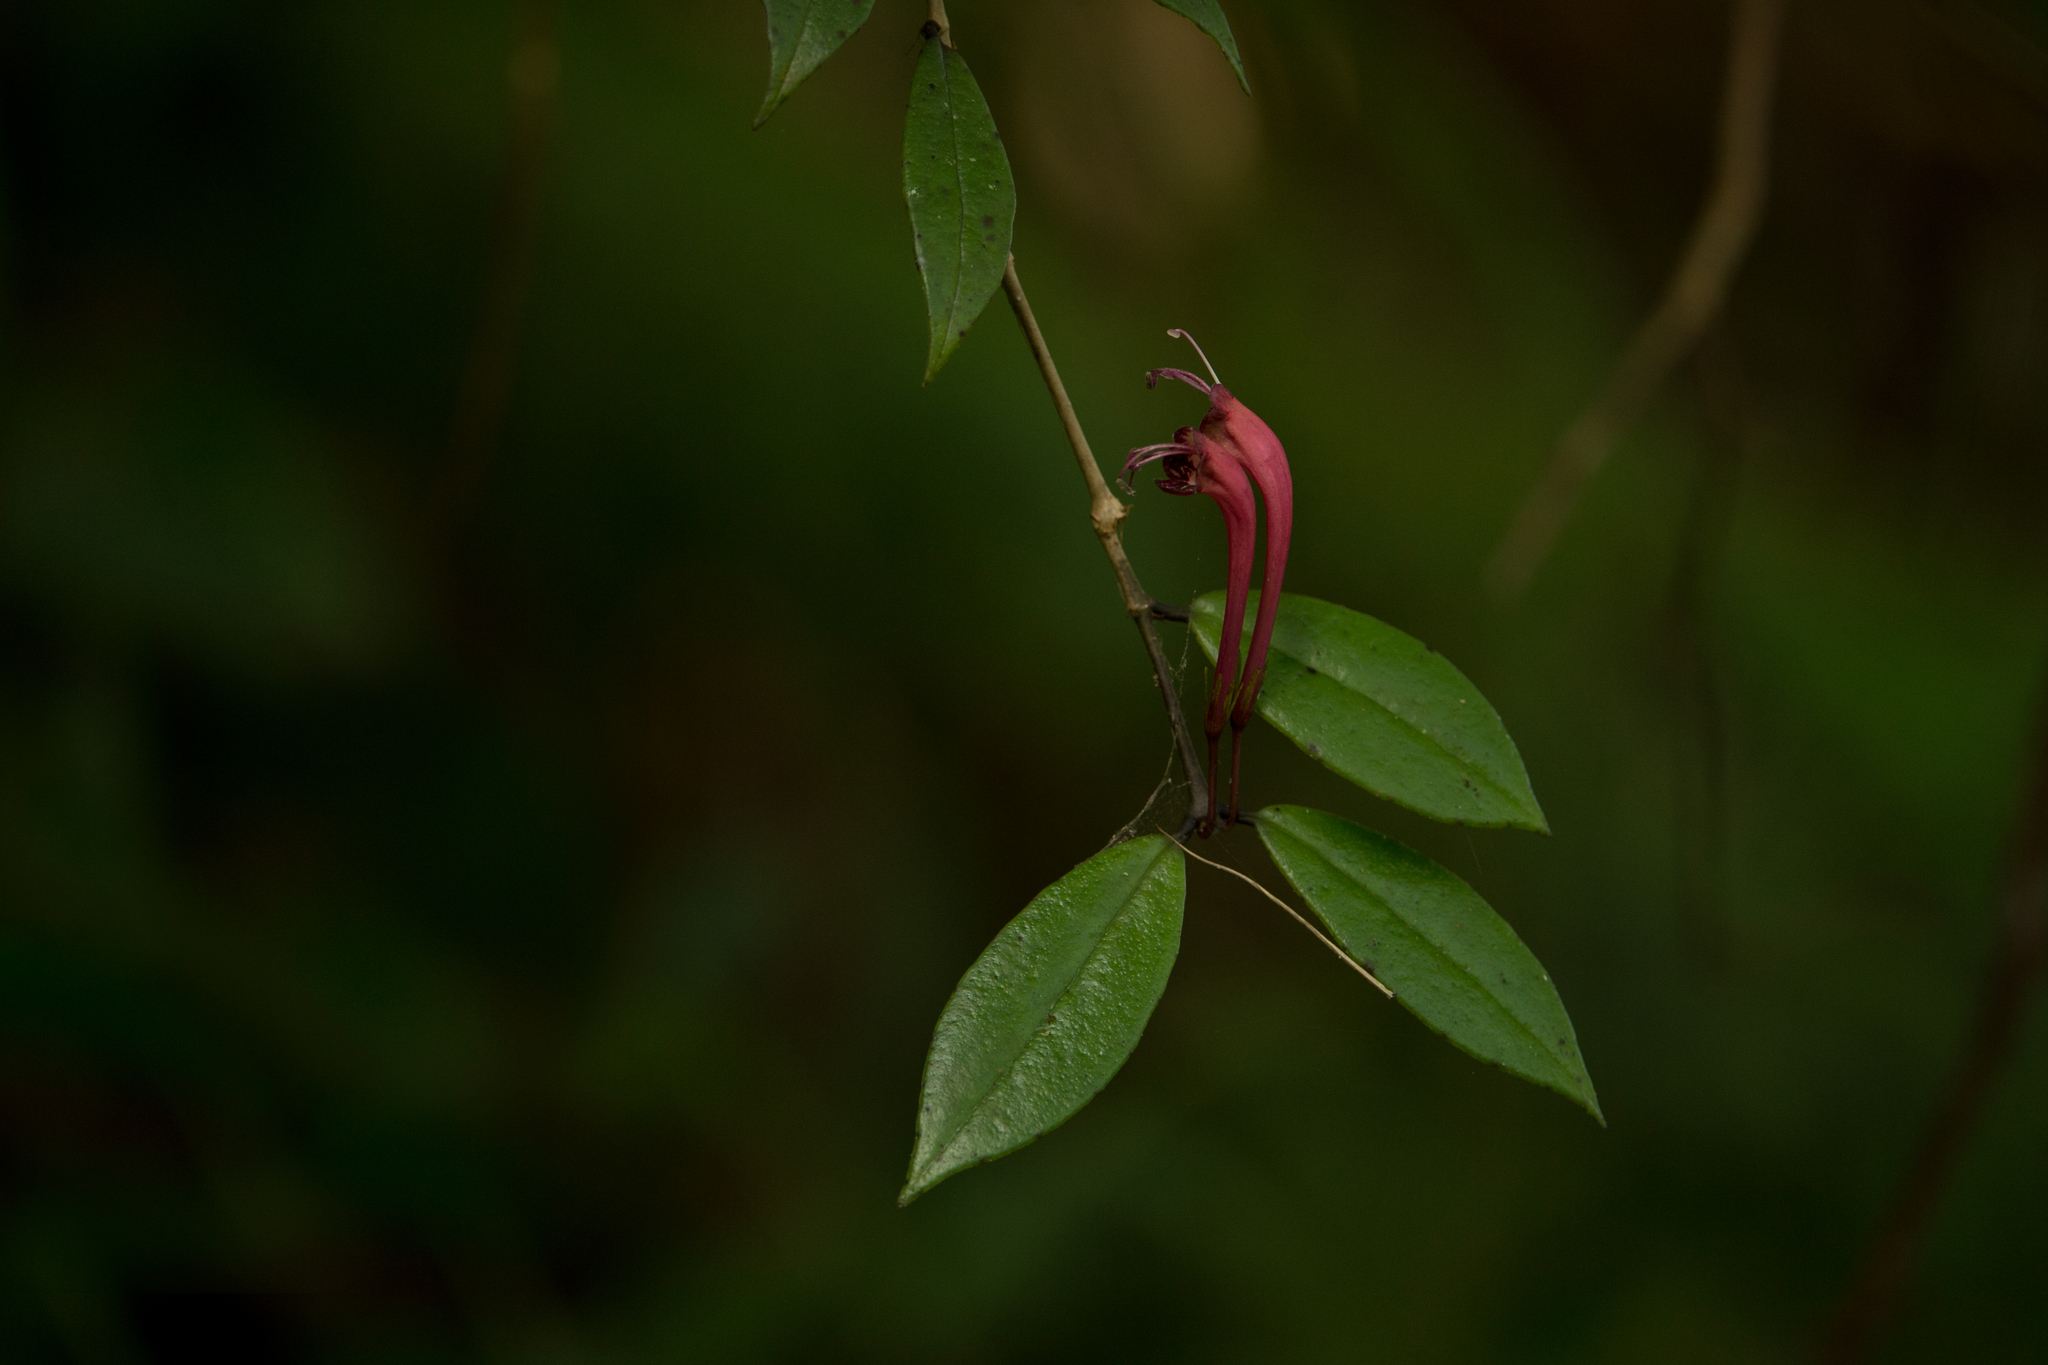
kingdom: Plantae
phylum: Tracheophyta
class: Magnoliopsida
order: Lamiales
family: Gesneriaceae
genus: Aeschynanthus
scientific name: Aeschynanthus perrottetii
